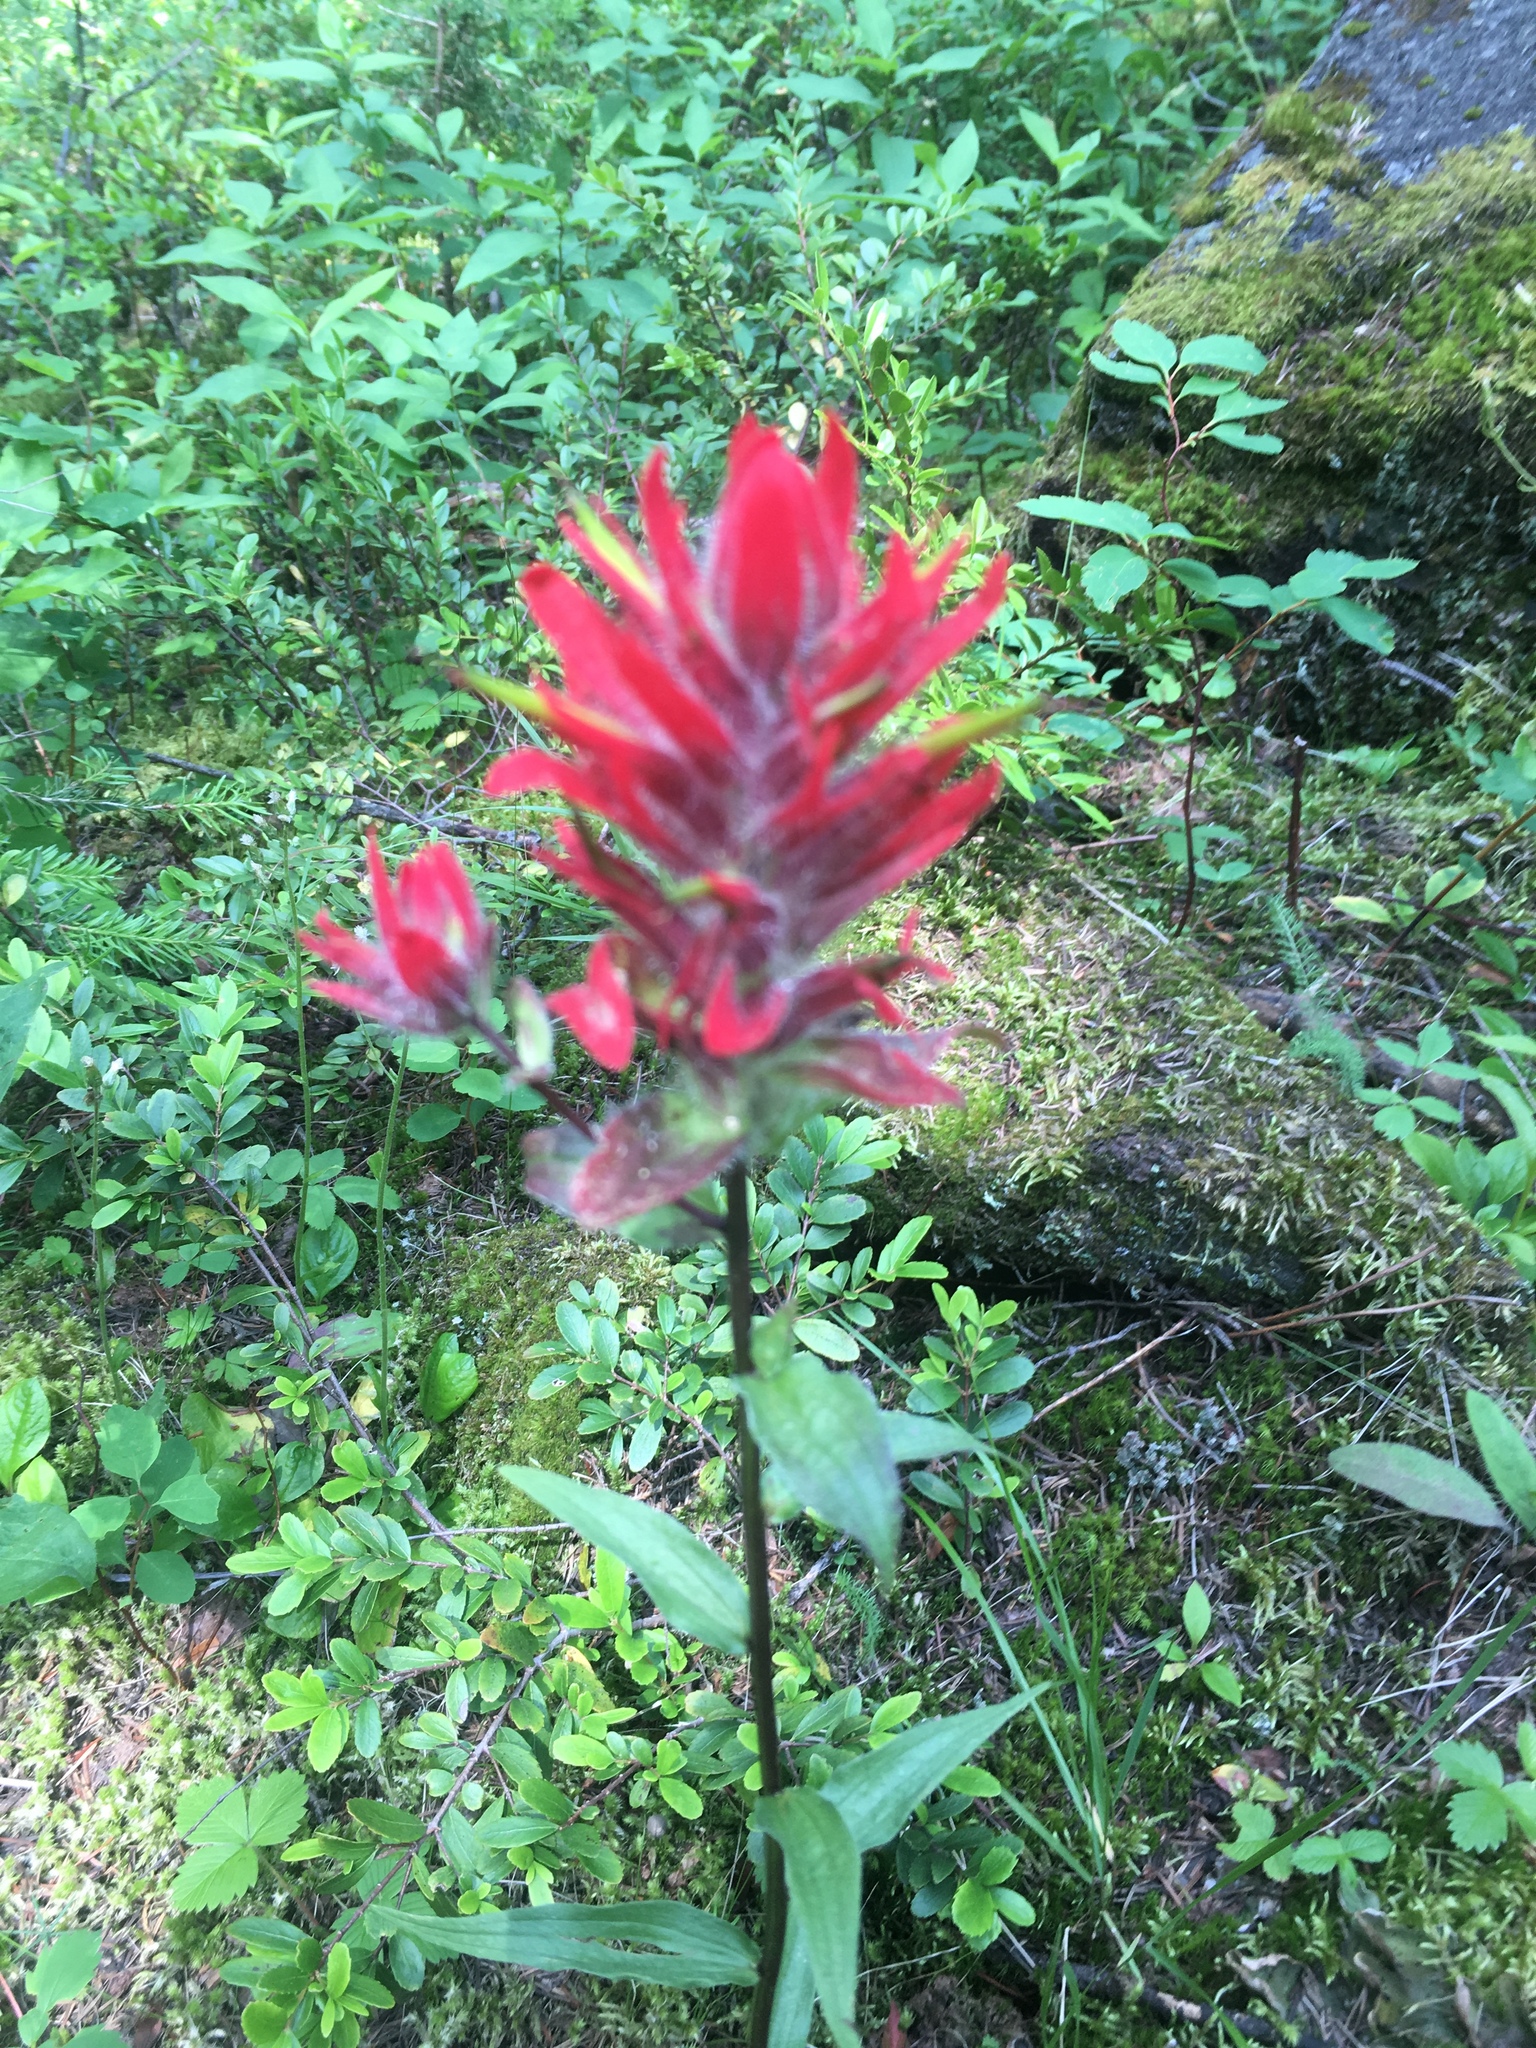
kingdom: Plantae
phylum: Tracheophyta
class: Magnoliopsida
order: Lamiales
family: Orobanchaceae
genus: Castilleja
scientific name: Castilleja miniata
